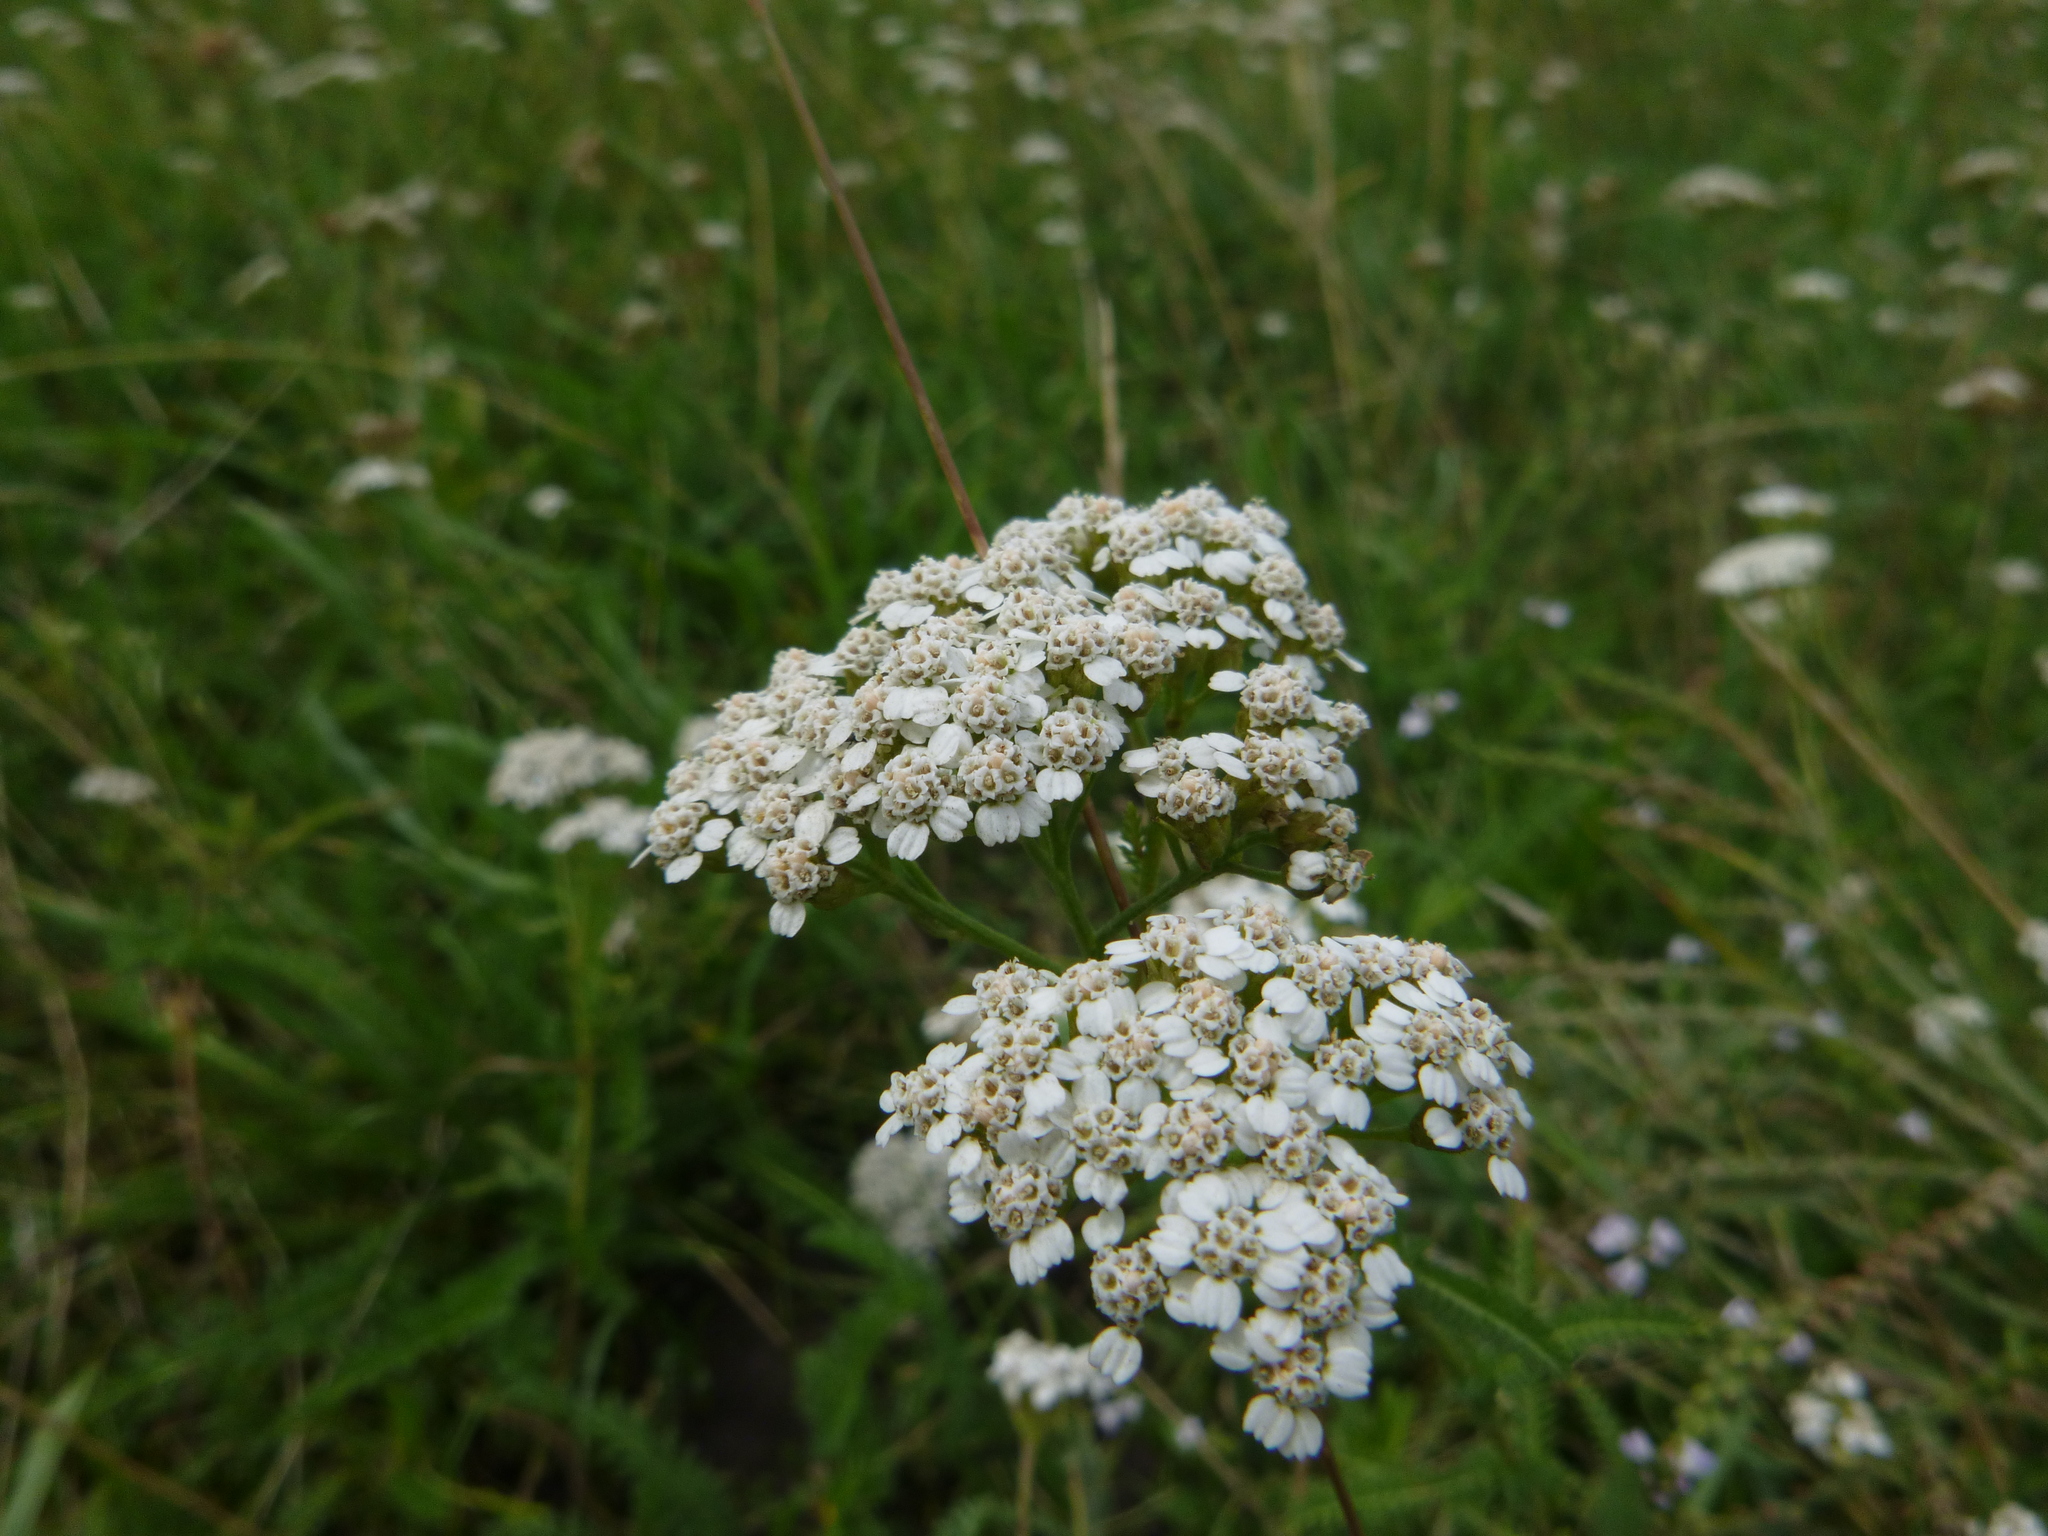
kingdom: Plantae
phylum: Tracheophyta
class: Magnoliopsida
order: Asterales
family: Asteraceae
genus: Achillea
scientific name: Achillea millefolium
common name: Yarrow
